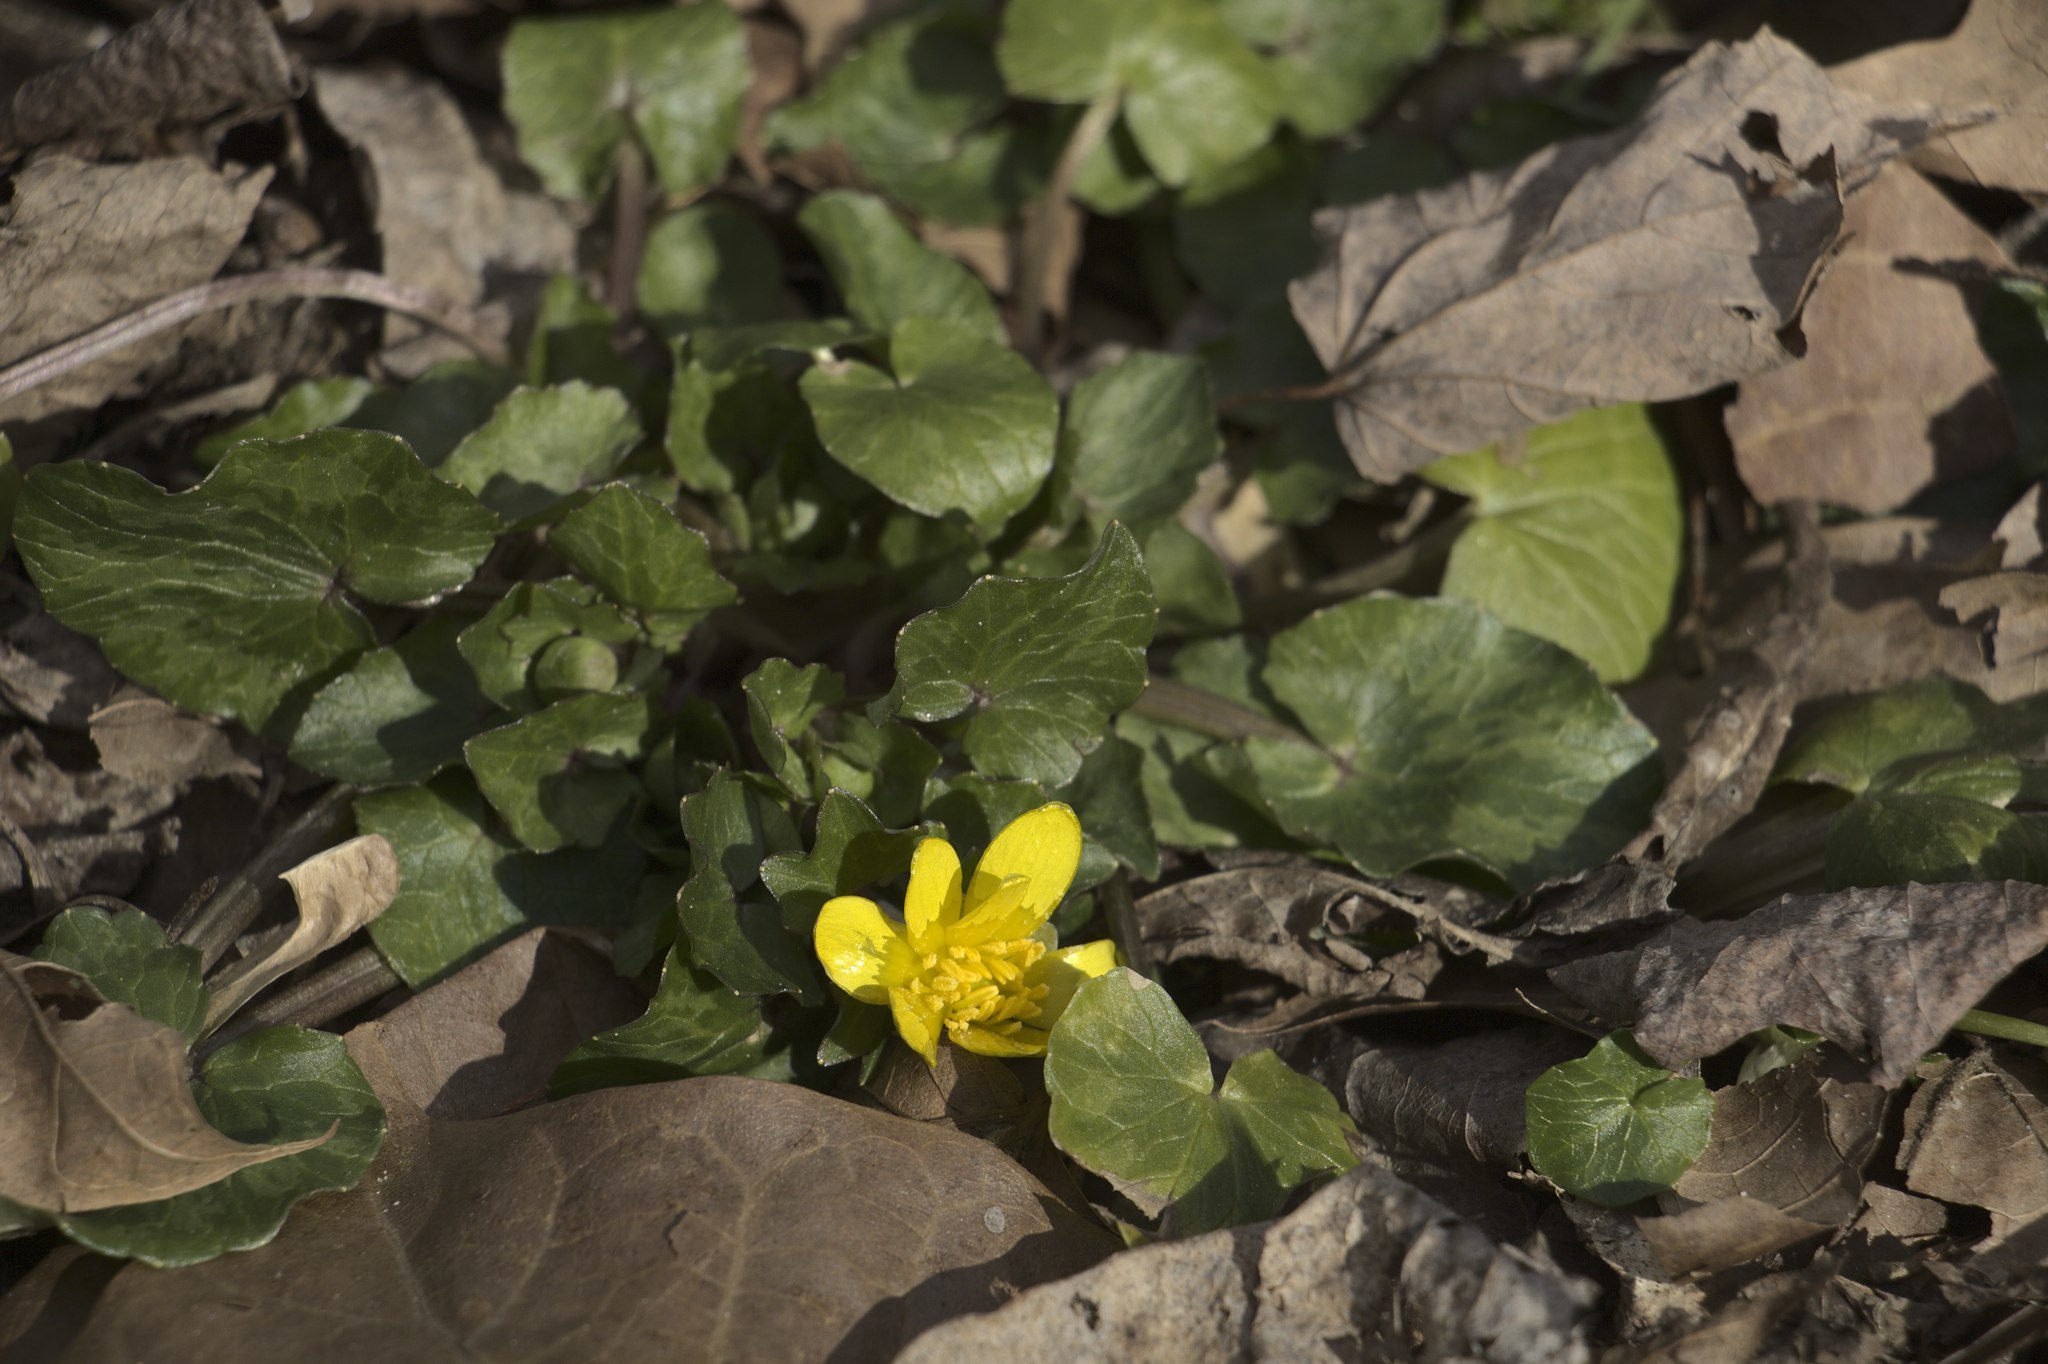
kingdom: Plantae
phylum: Tracheophyta
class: Magnoliopsida
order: Ranunculales
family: Ranunculaceae
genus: Ficaria
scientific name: Ficaria verna
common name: Lesser celandine
